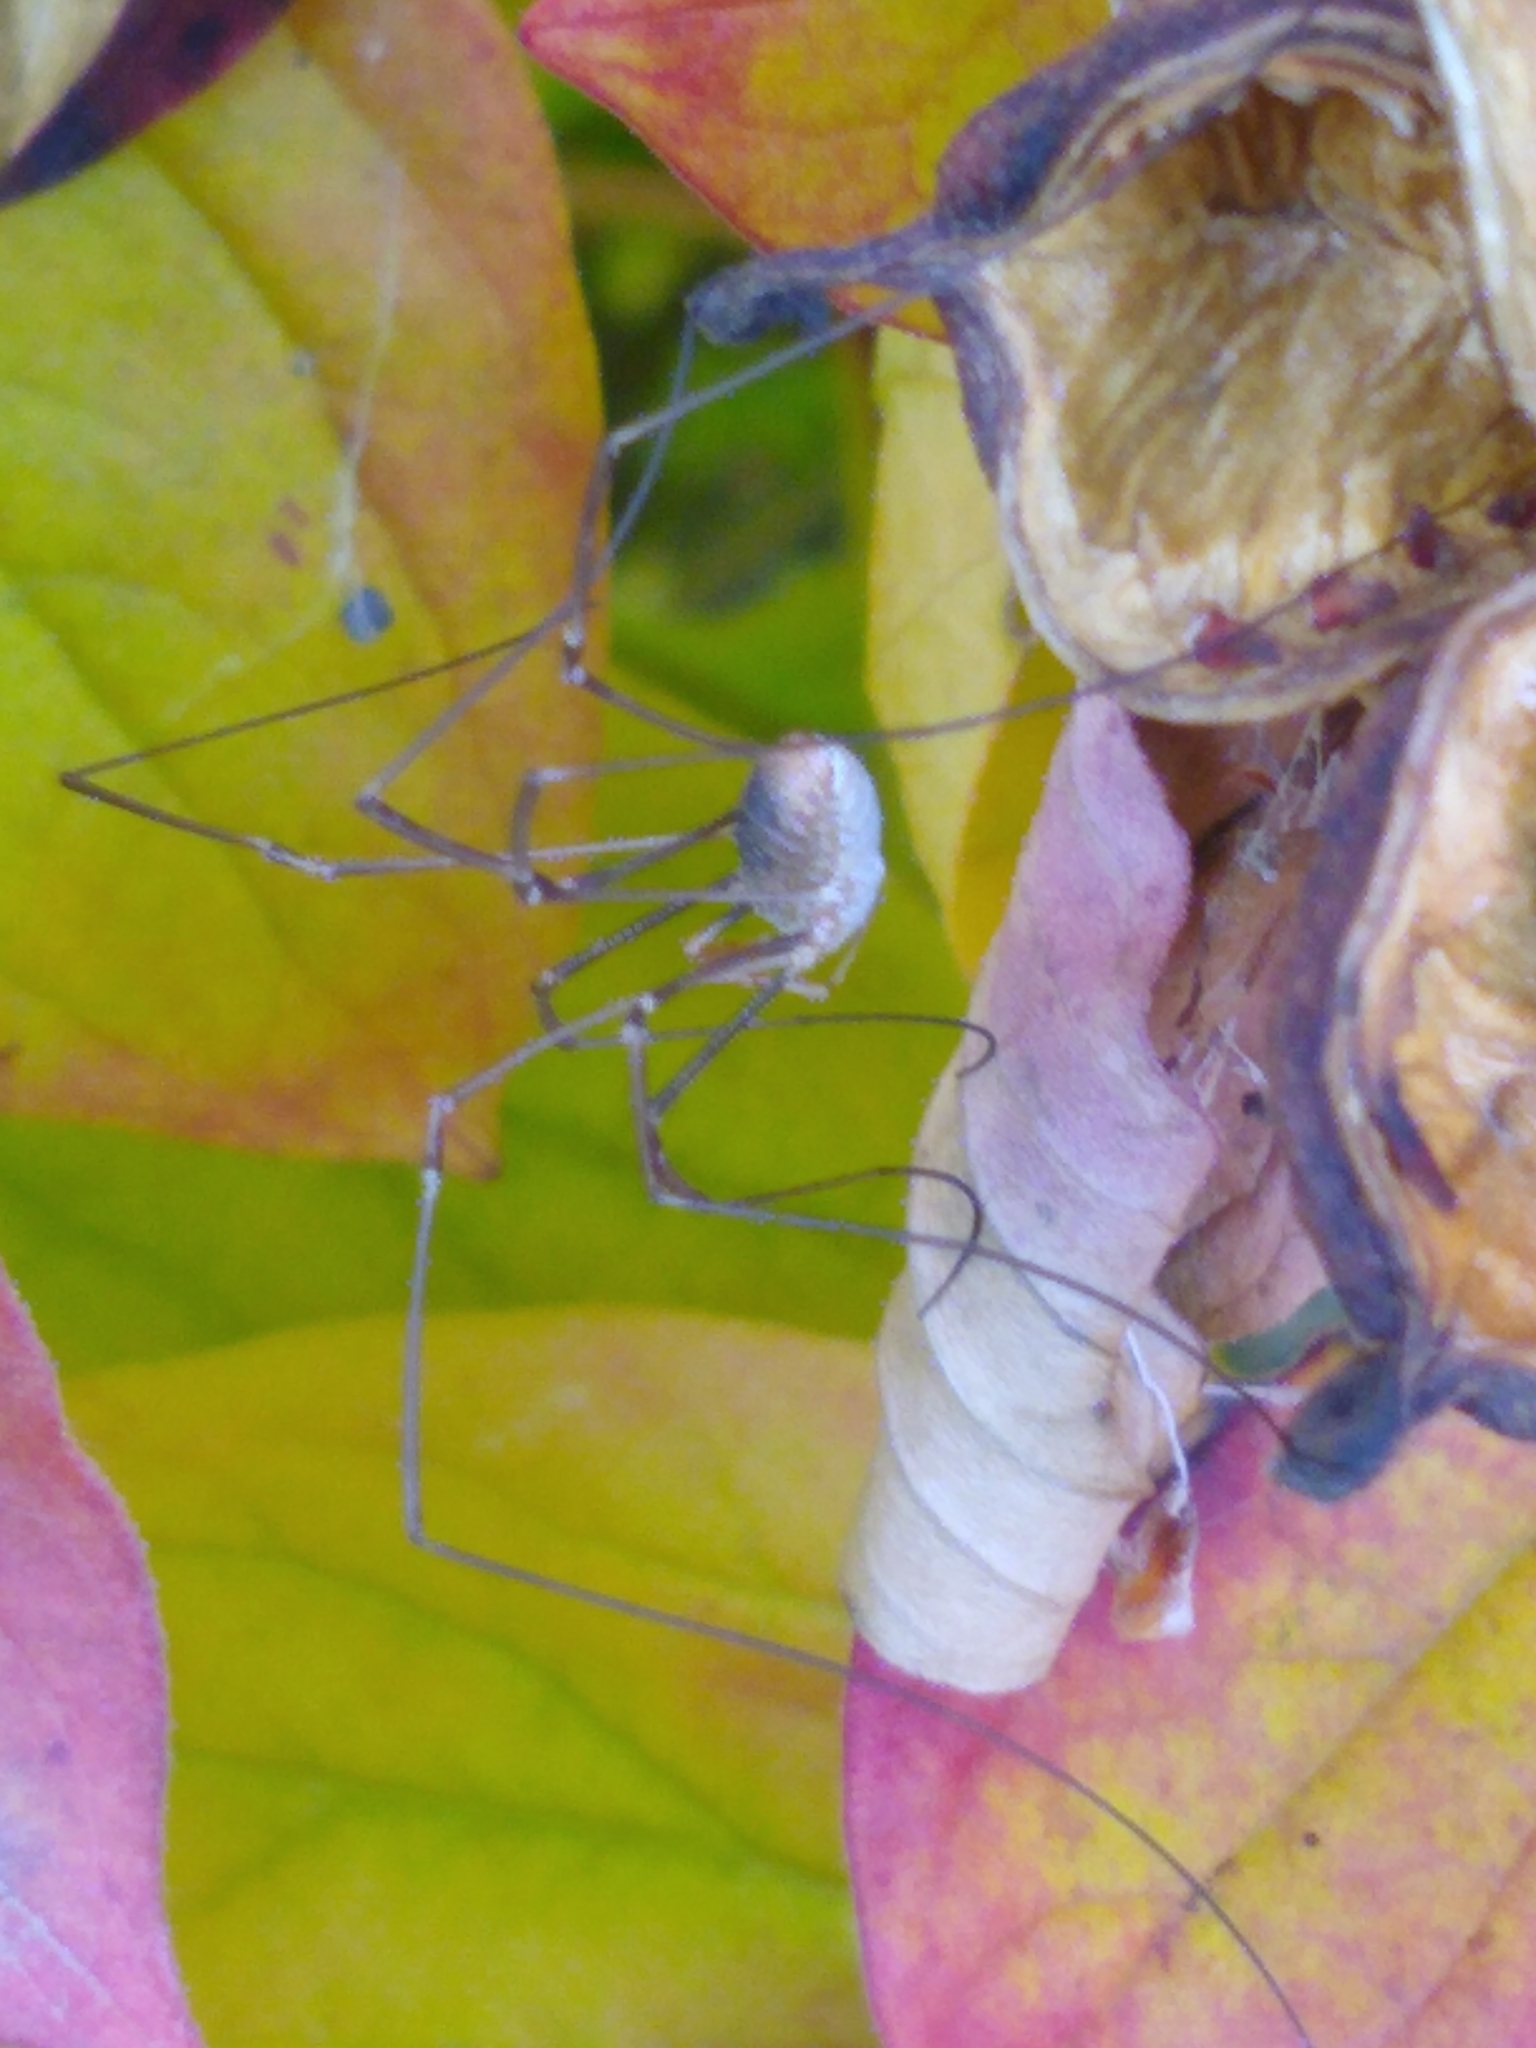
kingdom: Animalia
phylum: Arthropoda
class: Arachnida
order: Opiliones
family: Phalangiidae
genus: Phalangium
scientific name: Phalangium opilio
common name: Daddy longleg
